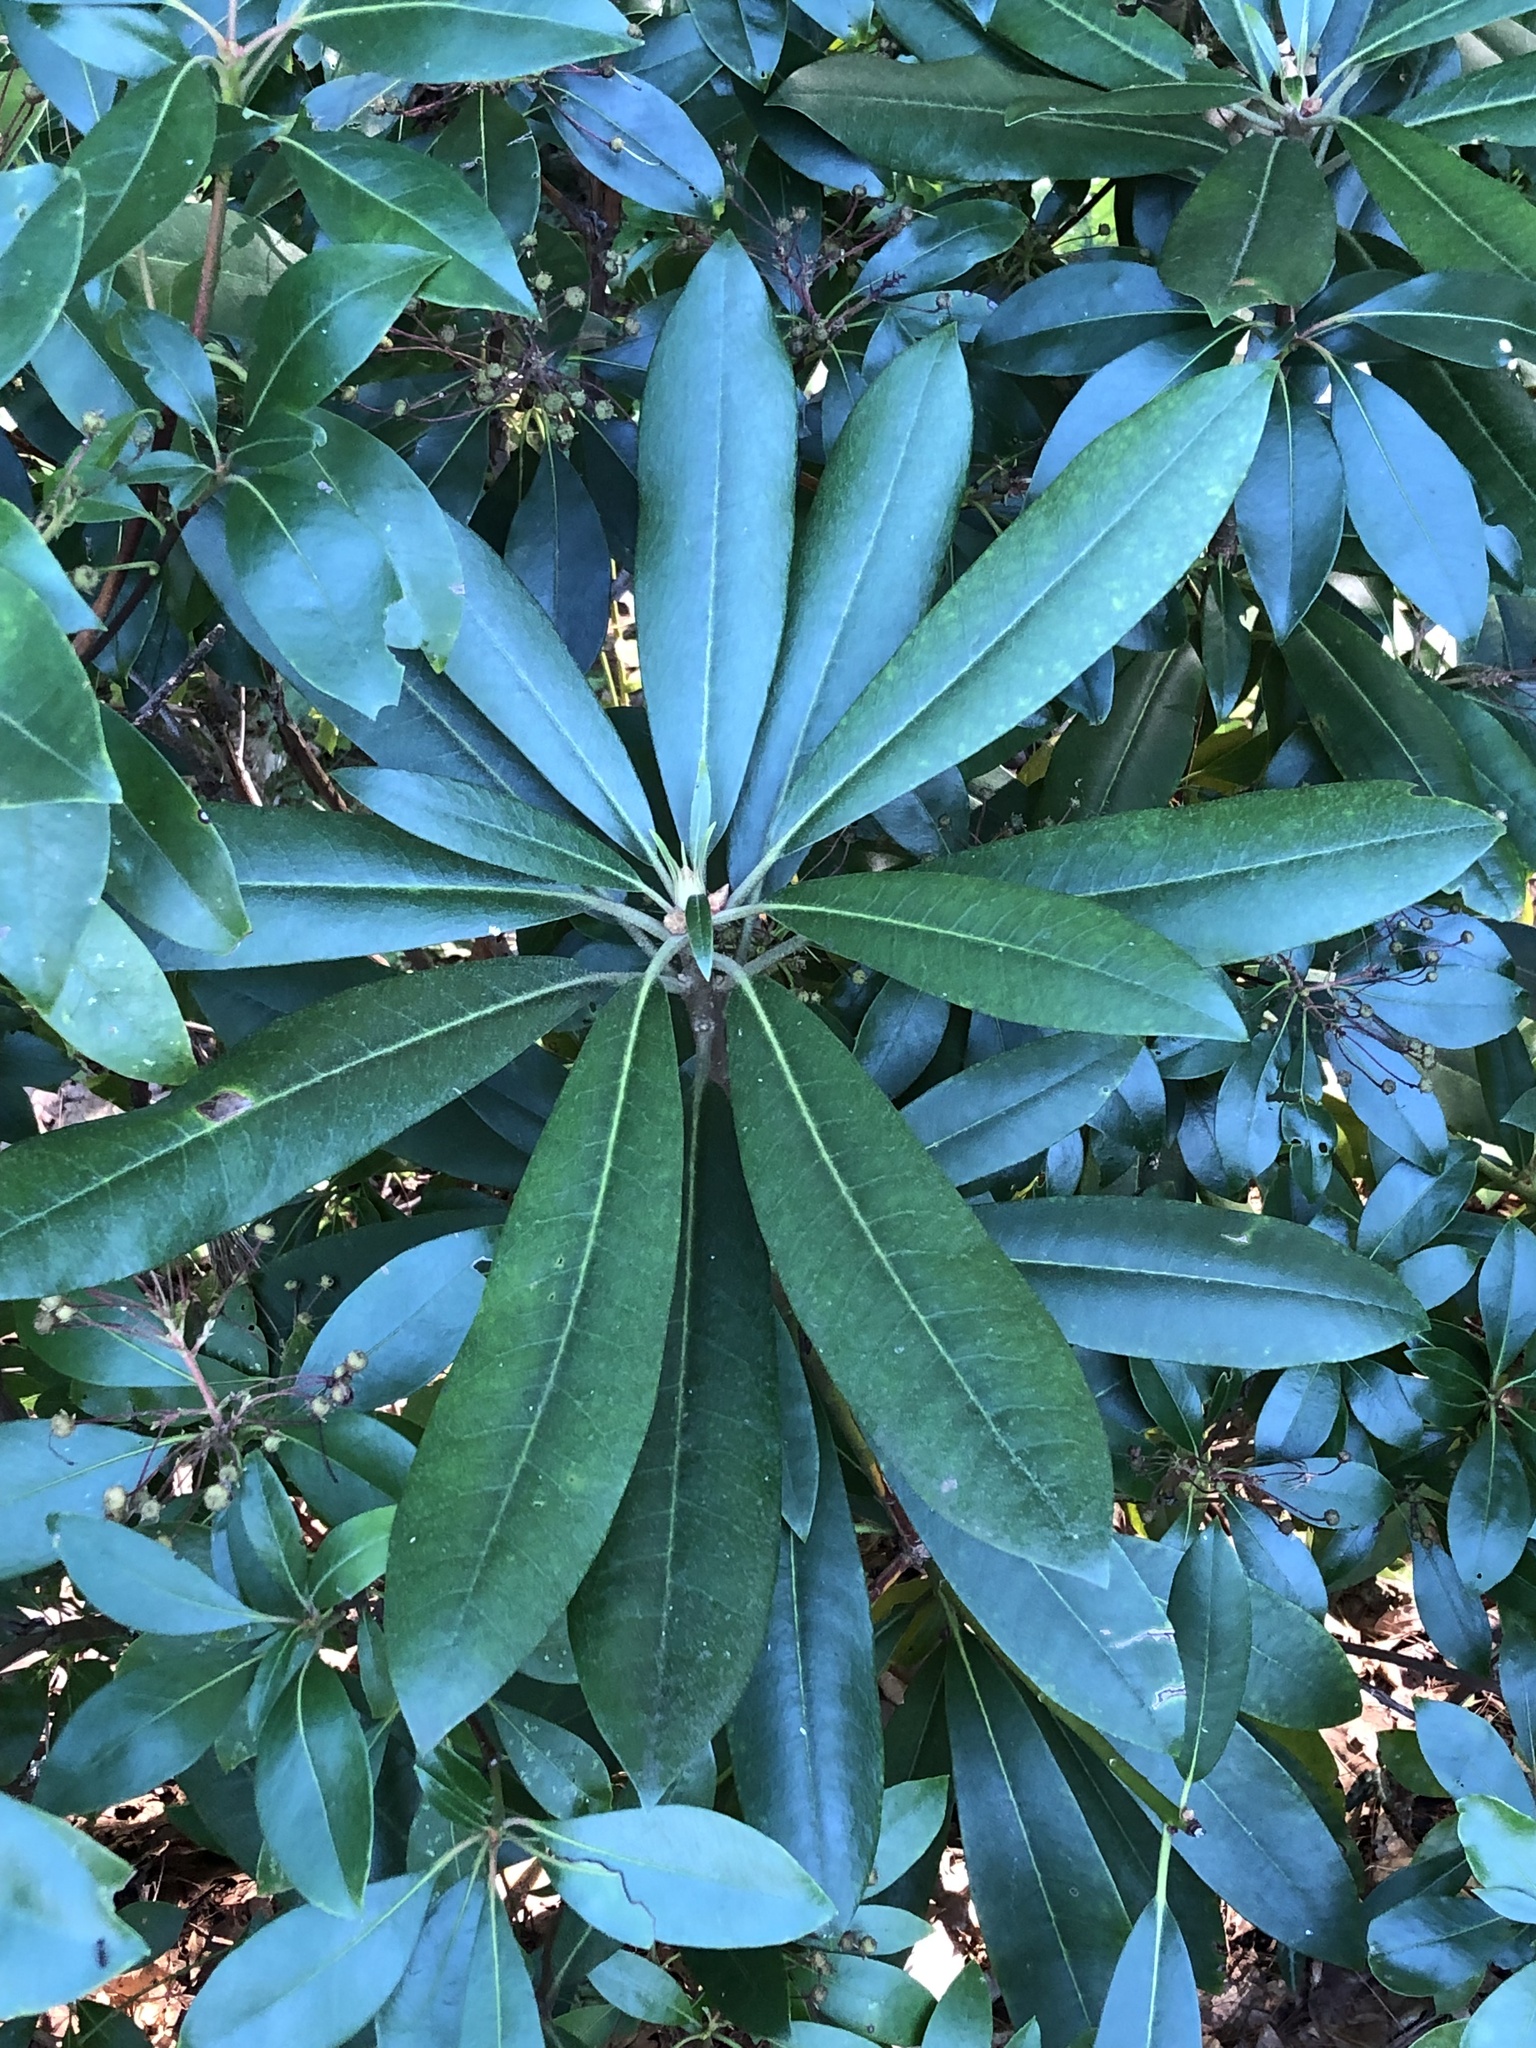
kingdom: Plantae
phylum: Tracheophyta
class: Magnoliopsida
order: Ericales
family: Ericaceae
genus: Rhododendron
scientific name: Rhododendron maximum
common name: Great rhododendron
